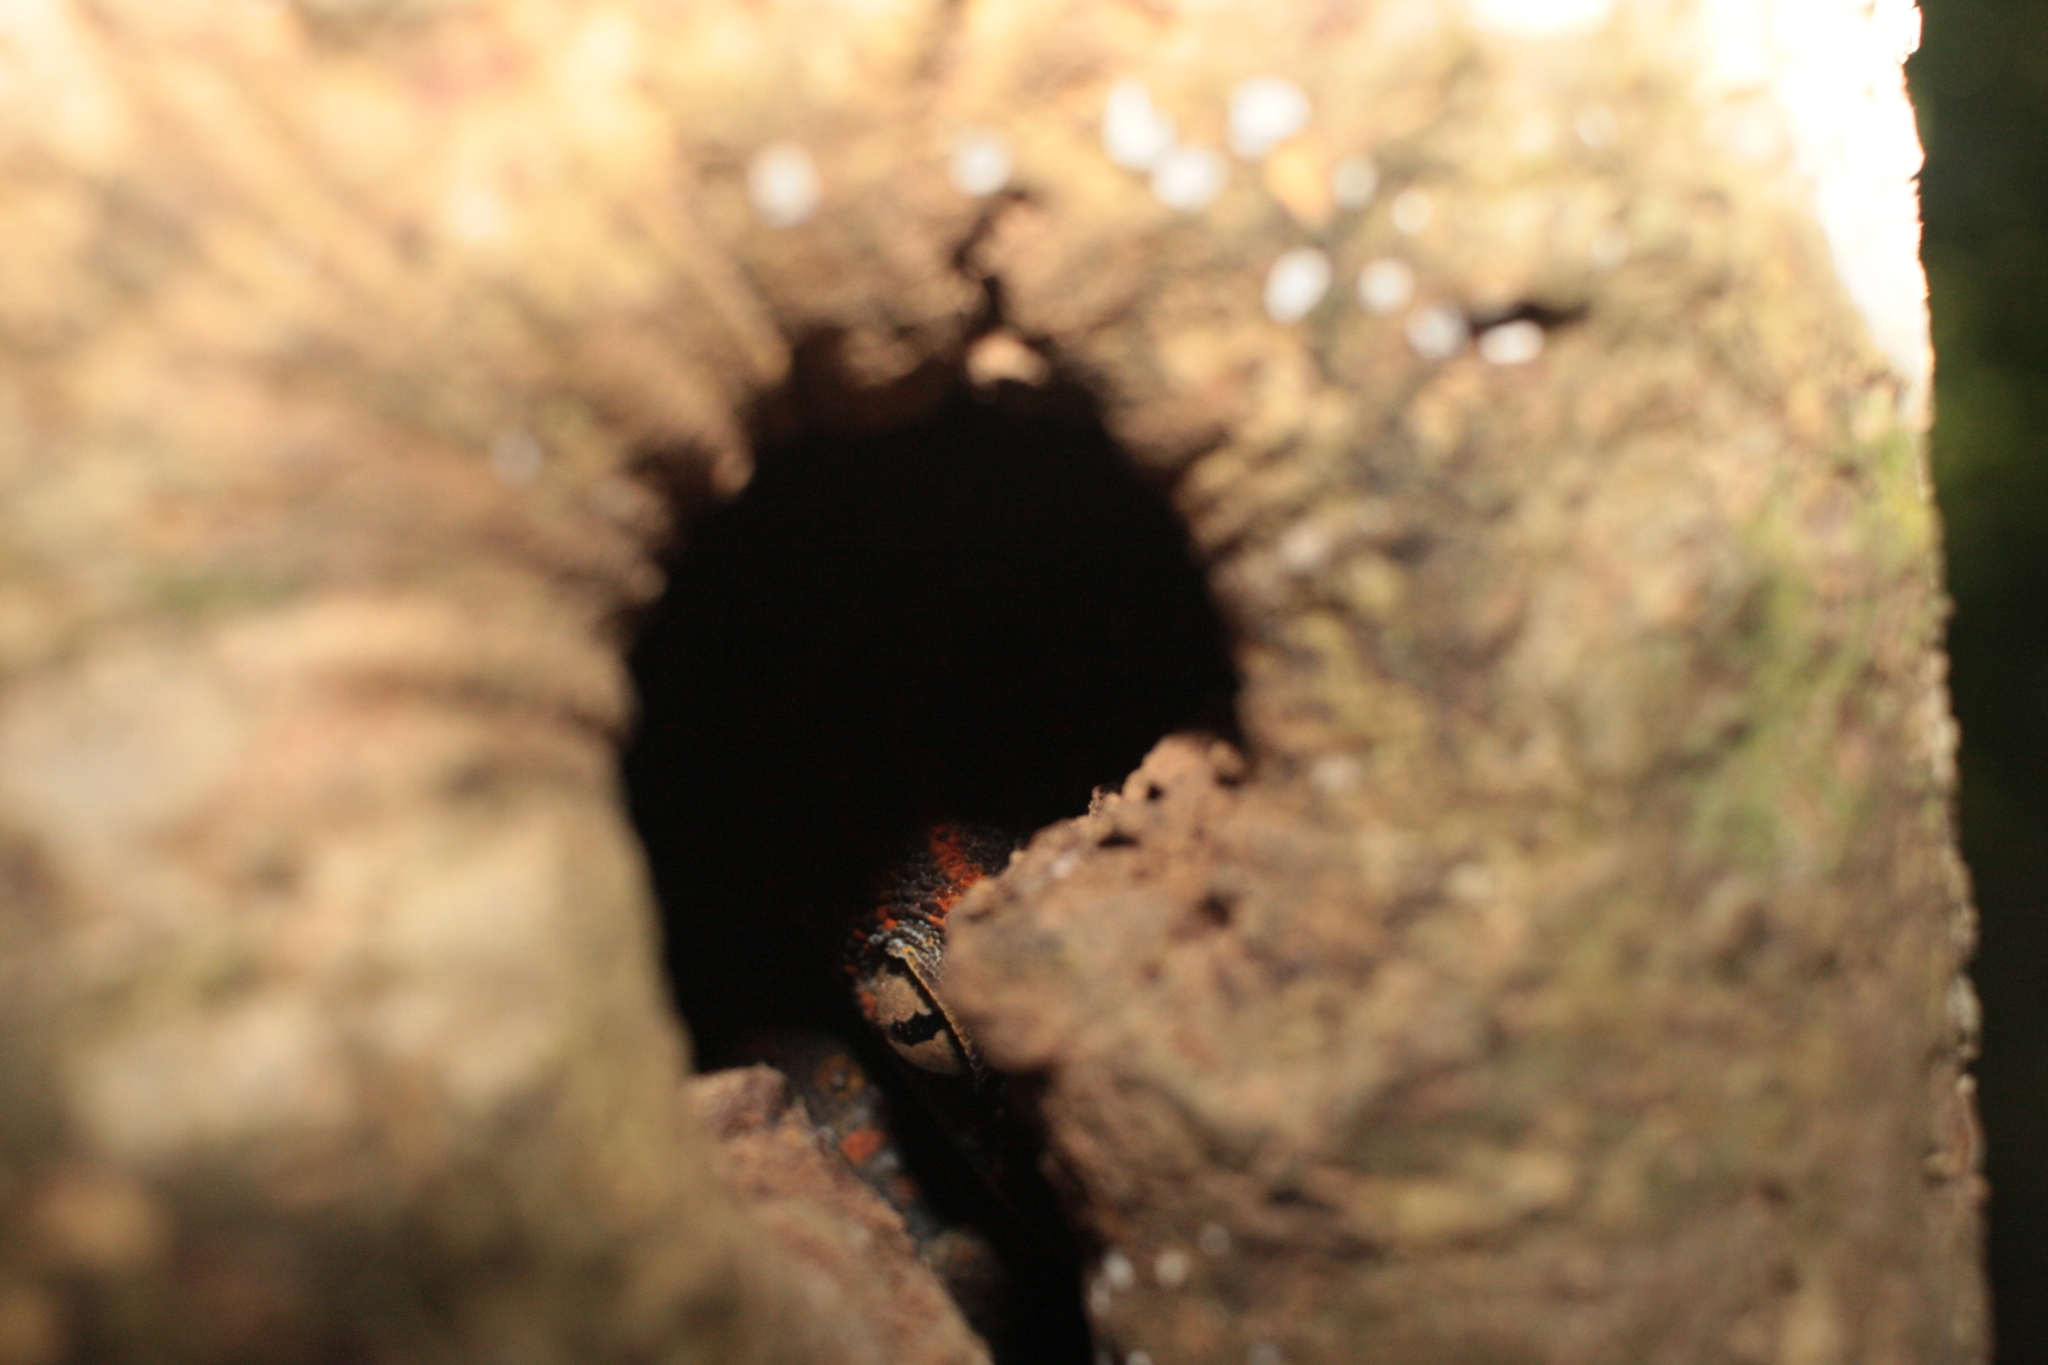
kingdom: Animalia
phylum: Chordata
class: Squamata
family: Gekkonidae
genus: Gekko
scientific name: Gekko gecko
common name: Tokay gecko
